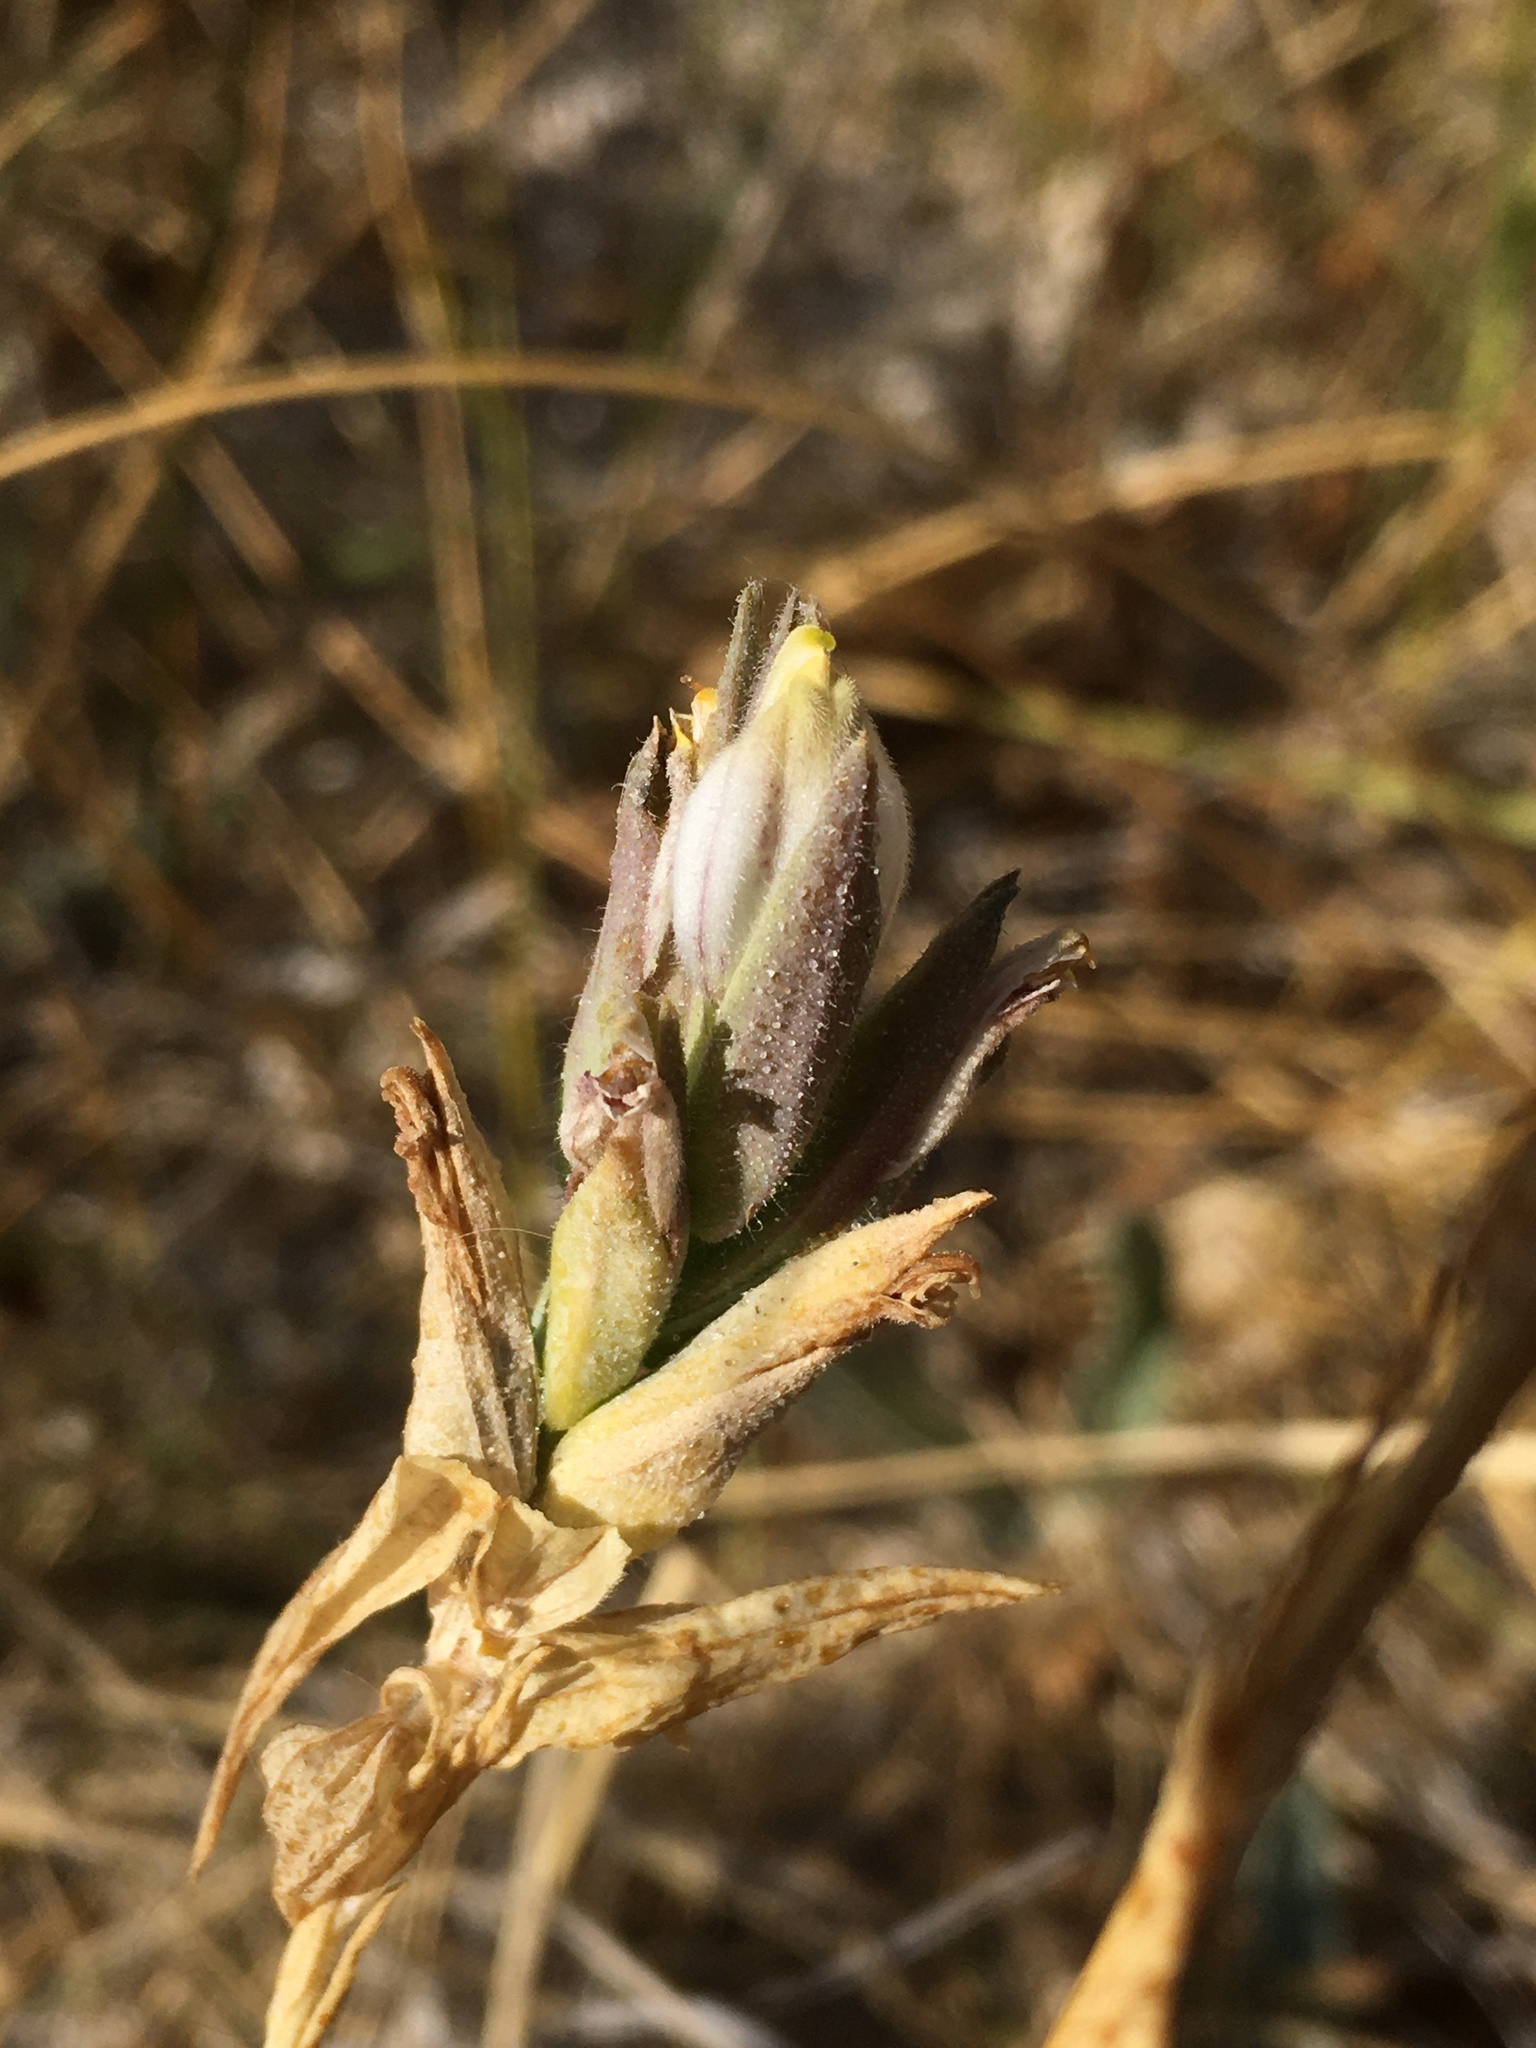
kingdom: Plantae
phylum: Tracheophyta
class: Magnoliopsida
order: Lamiales
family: Orobanchaceae
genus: Chloropyron
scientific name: Chloropyron maritimum
